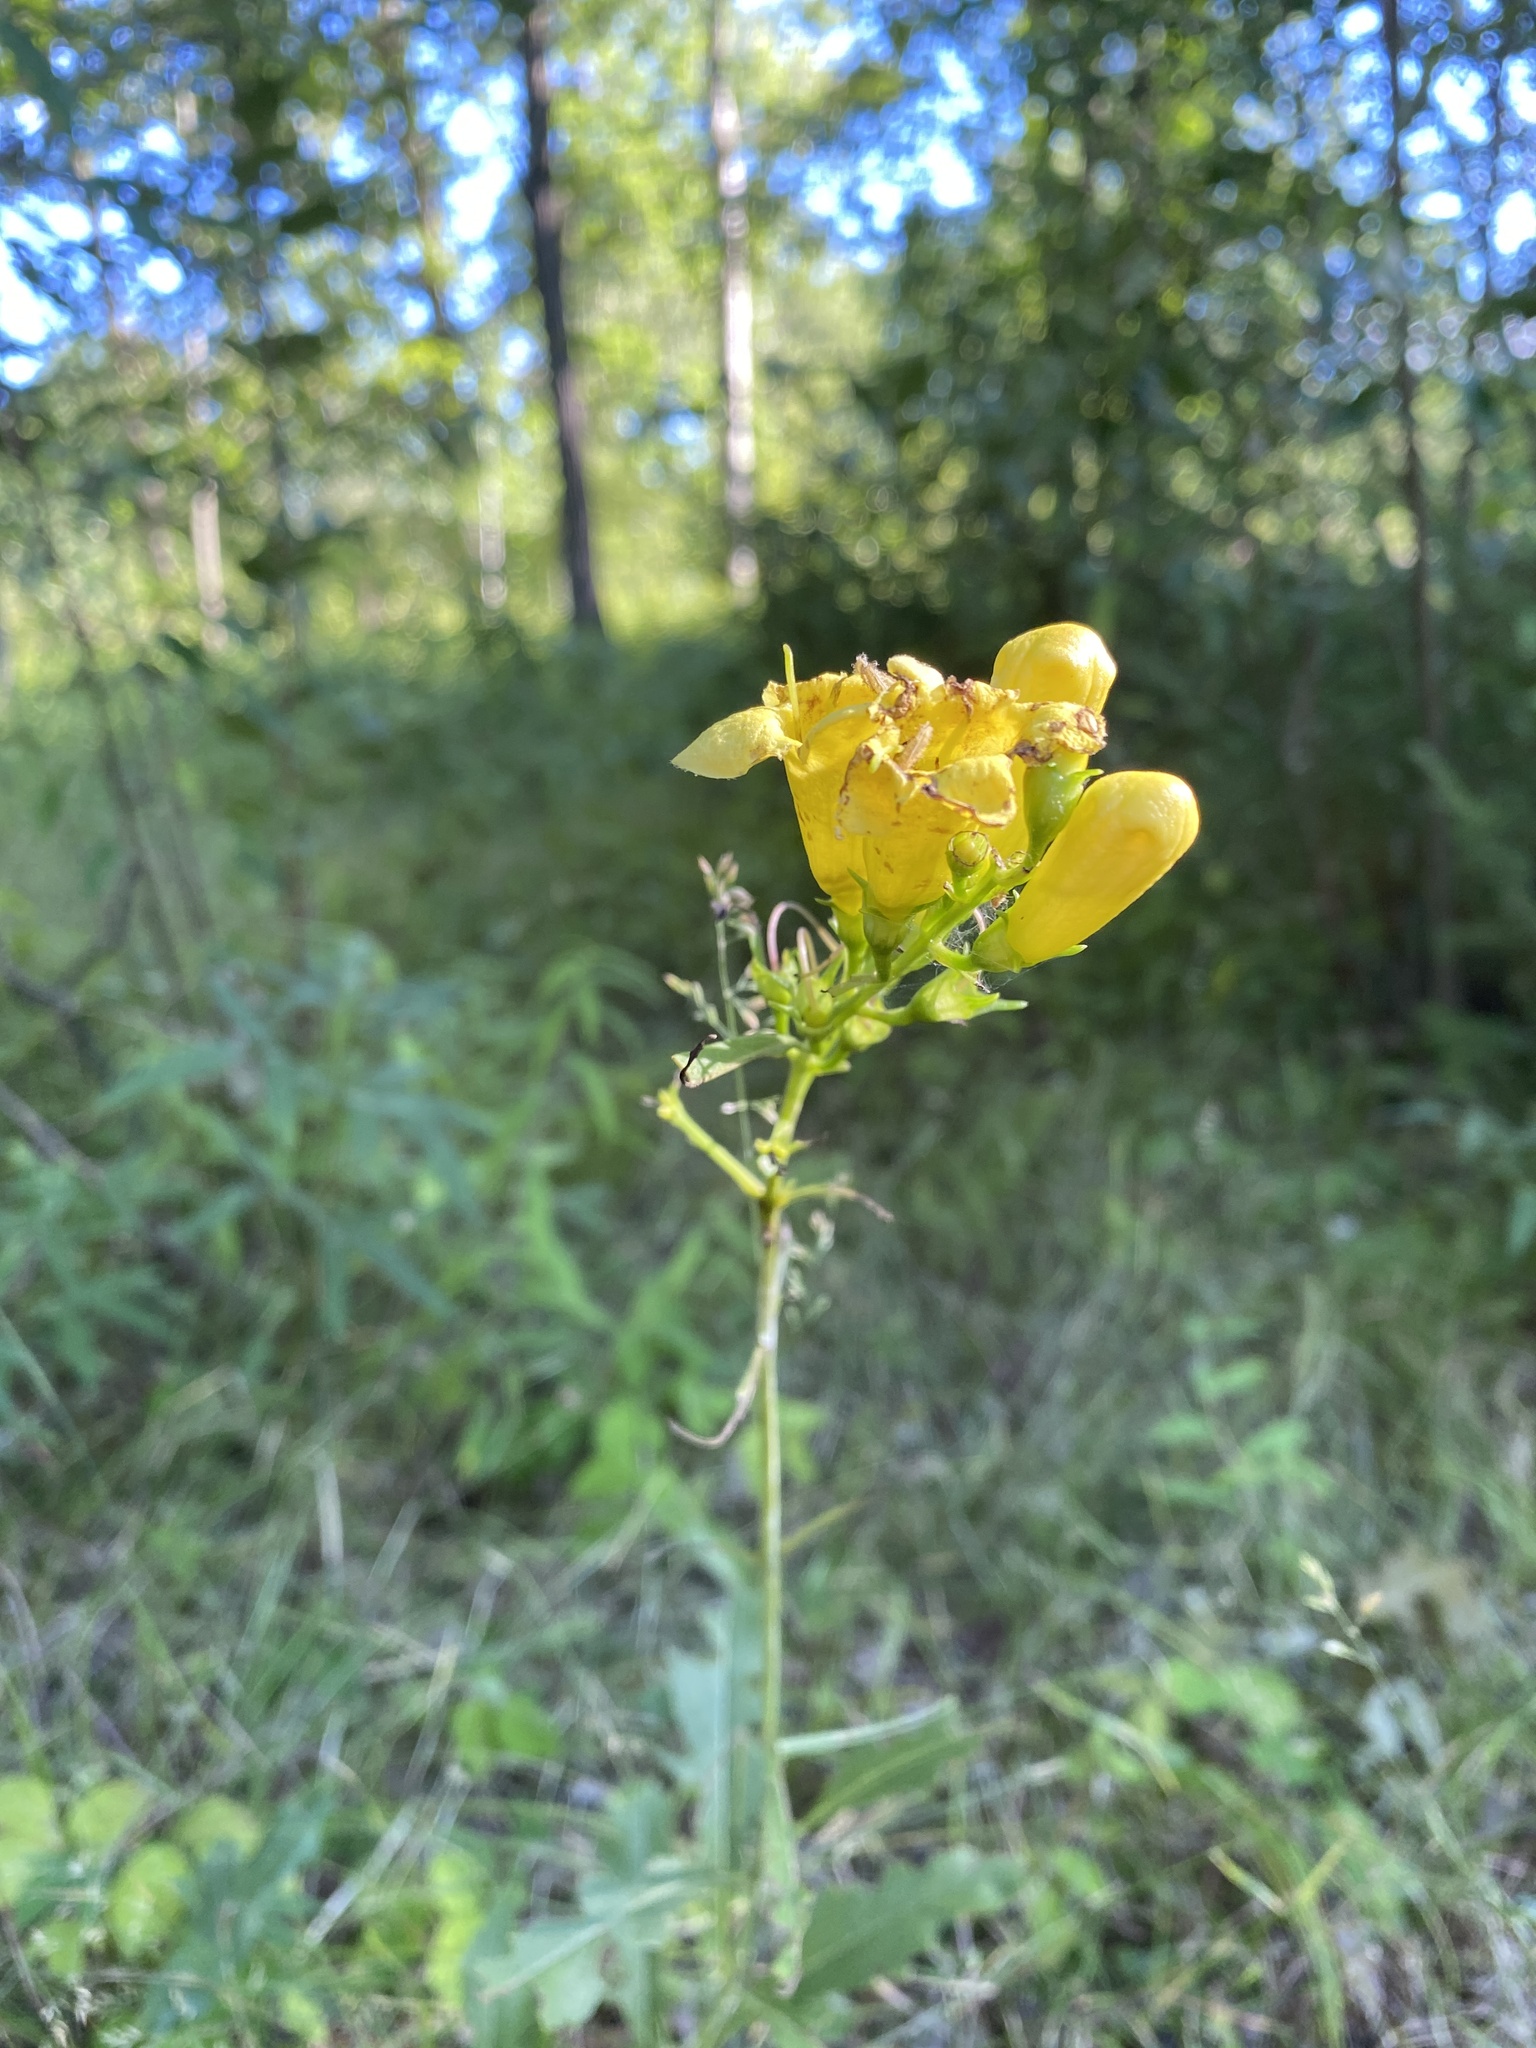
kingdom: Plantae
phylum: Tracheophyta
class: Magnoliopsida
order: Lamiales
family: Orobanchaceae
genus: Aureolaria
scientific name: Aureolaria flava
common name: Smooth false foxglove
